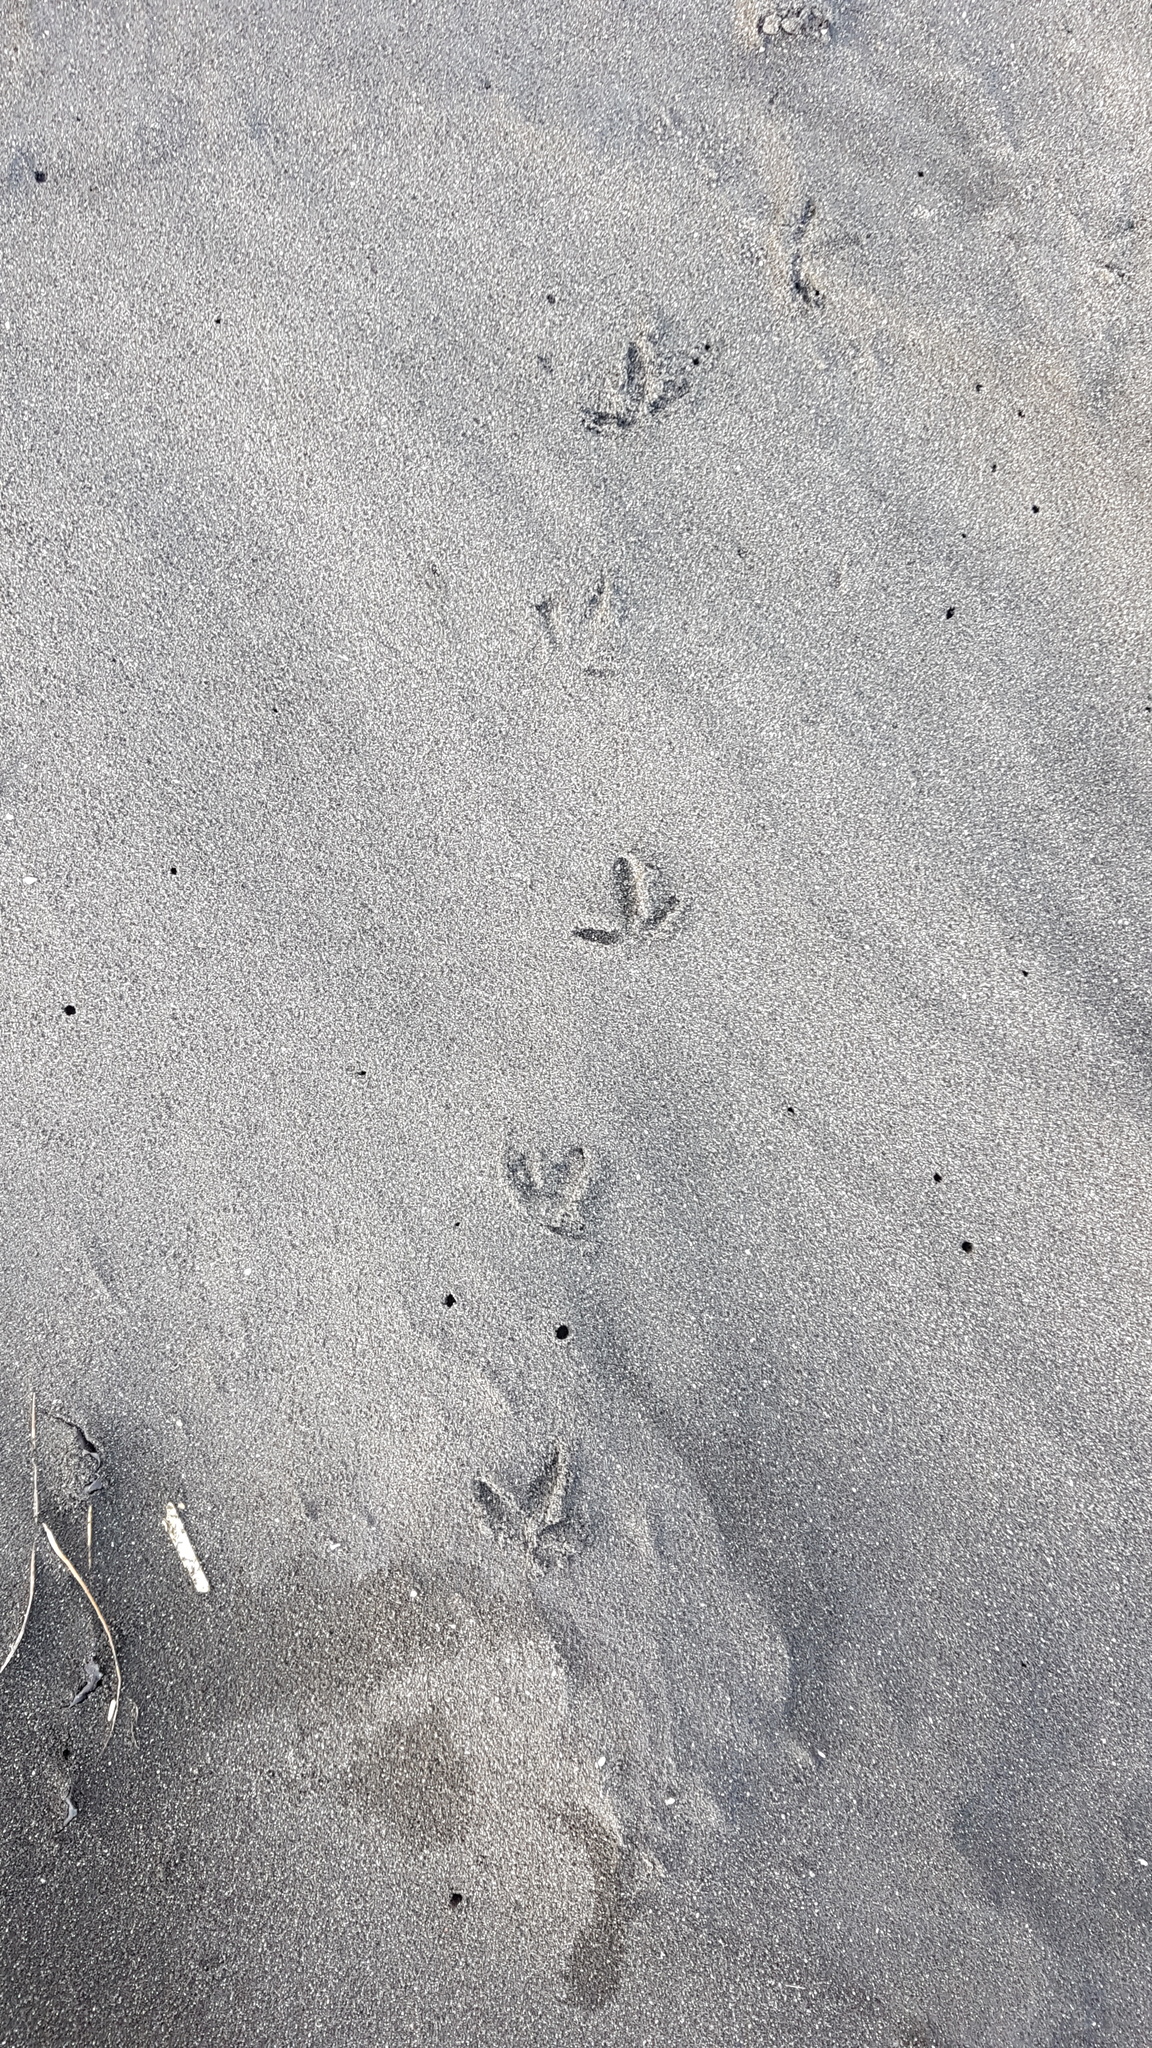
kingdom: Animalia
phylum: Chordata
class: Aves
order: Charadriiformes
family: Charadriidae
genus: Anarhynchus
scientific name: Anarhynchus
